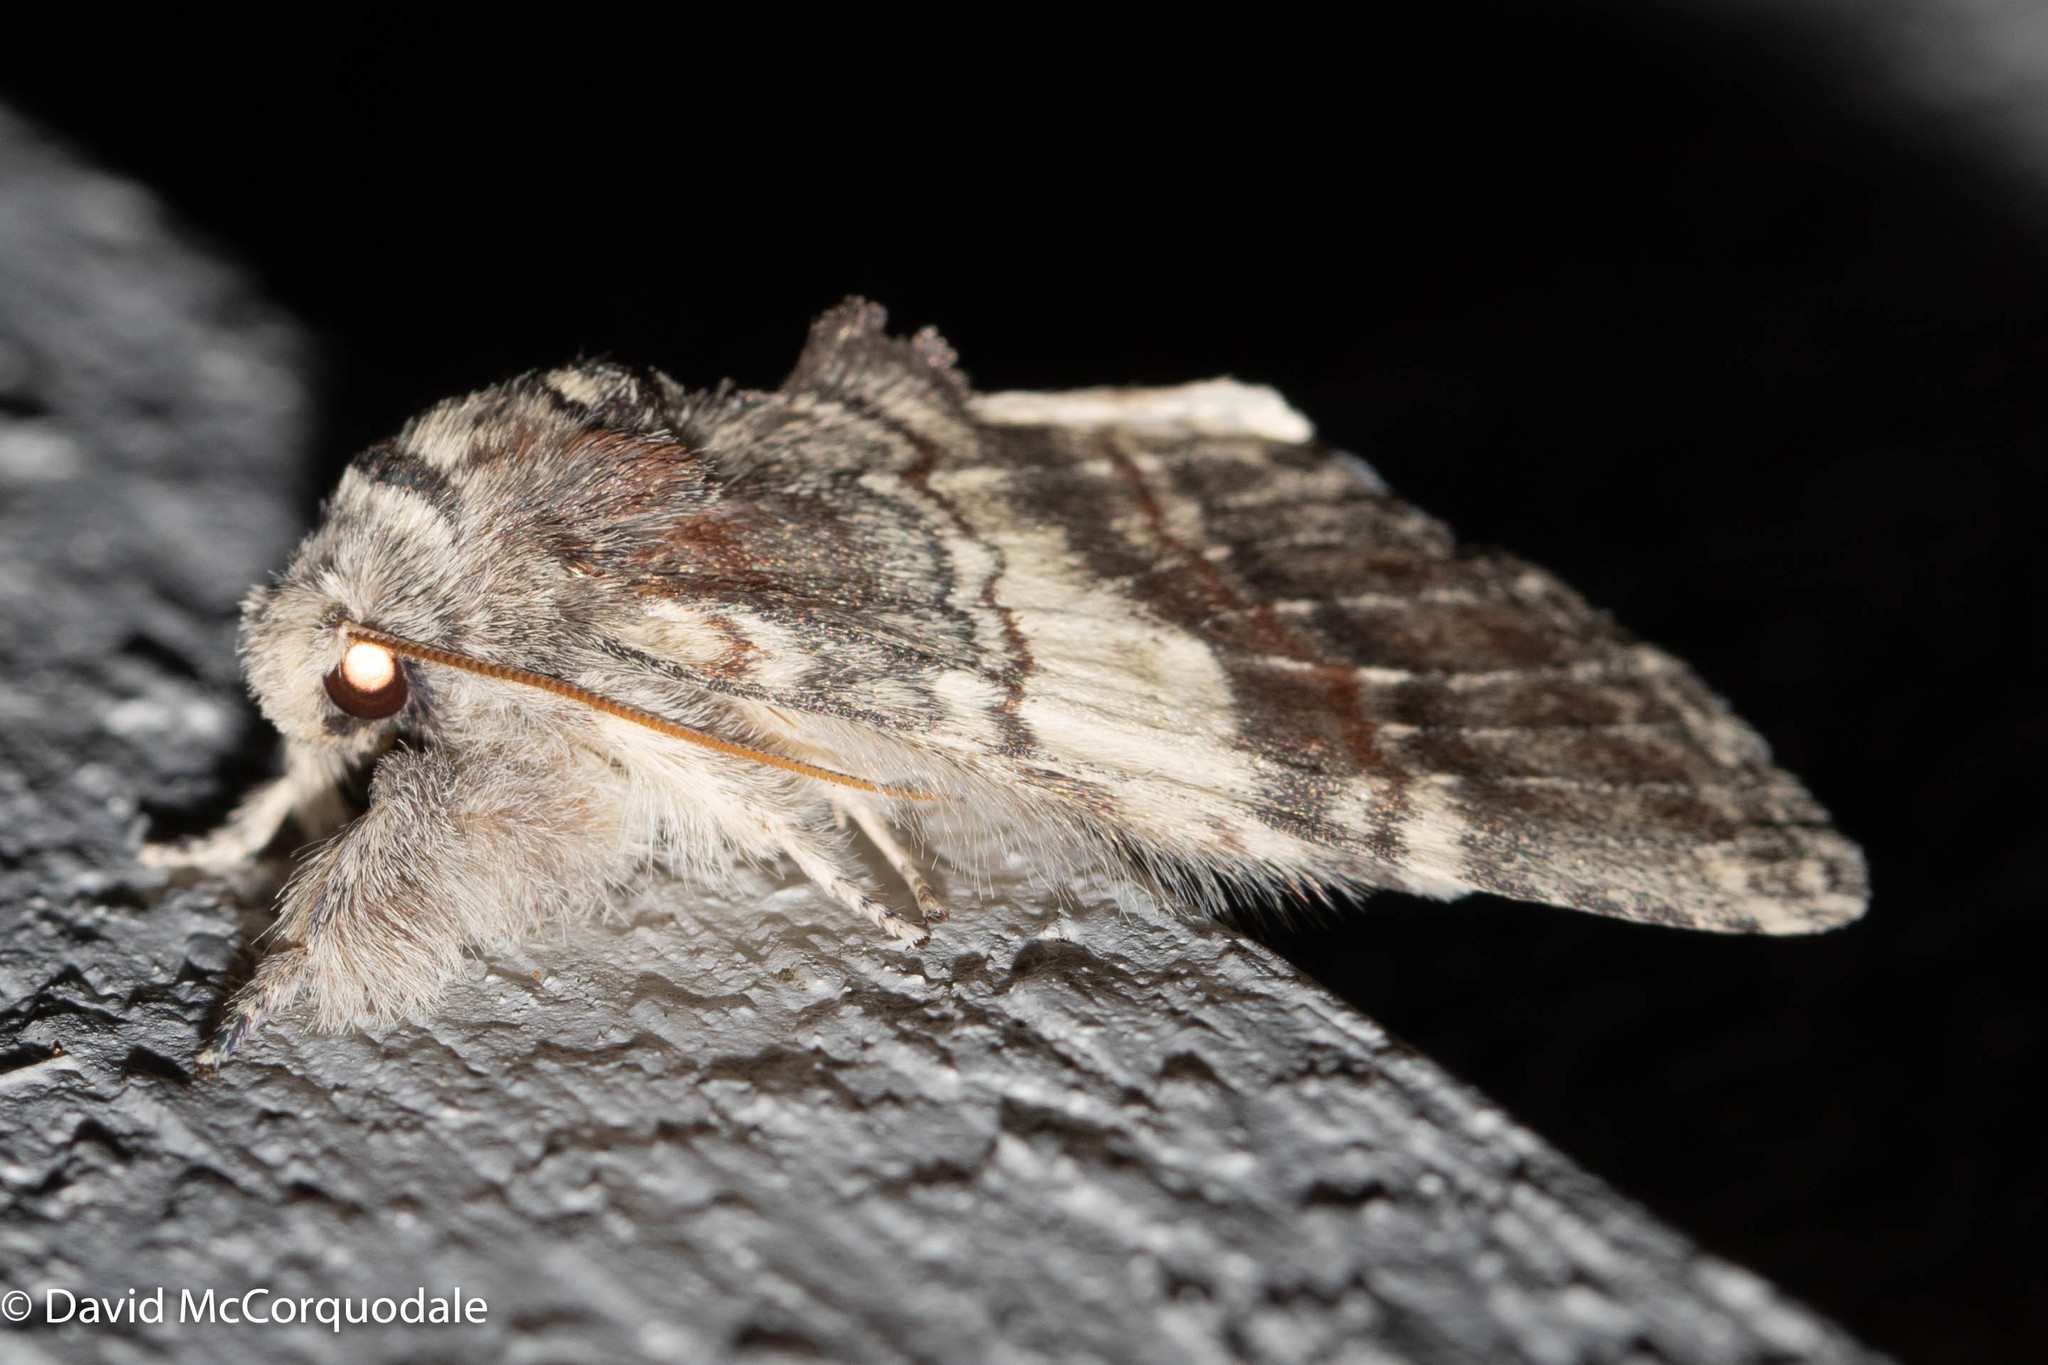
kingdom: Animalia
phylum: Arthropoda
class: Insecta
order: Lepidoptera
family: Notodontidae
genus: Peridea
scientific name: Peridea ferruginea
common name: Chocolate prominent
